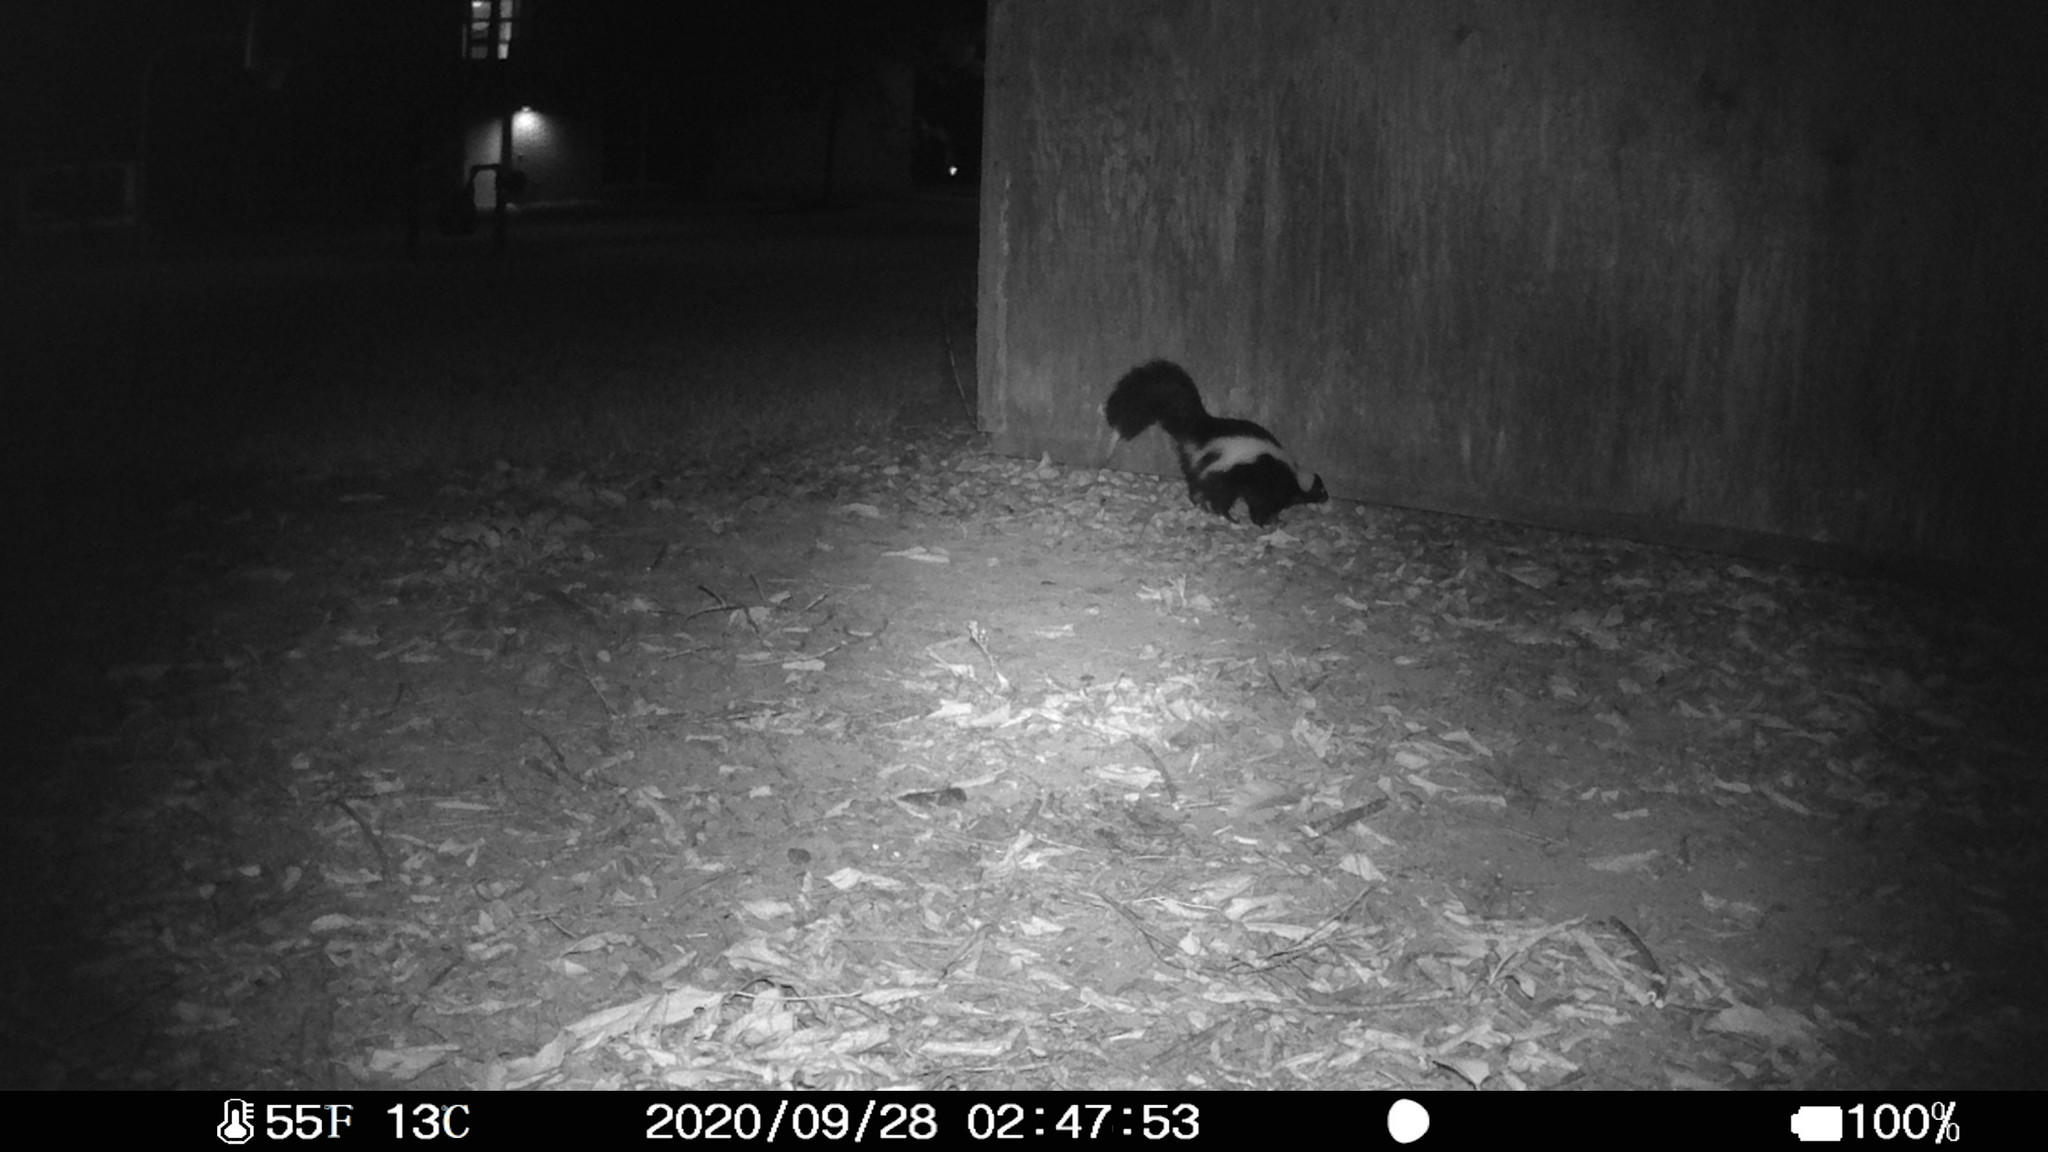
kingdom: Animalia
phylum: Chordata
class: Mammalia
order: Carnivora
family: Mephitidae
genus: Mephitis
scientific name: Mephitis mephitis
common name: Striped skunk
